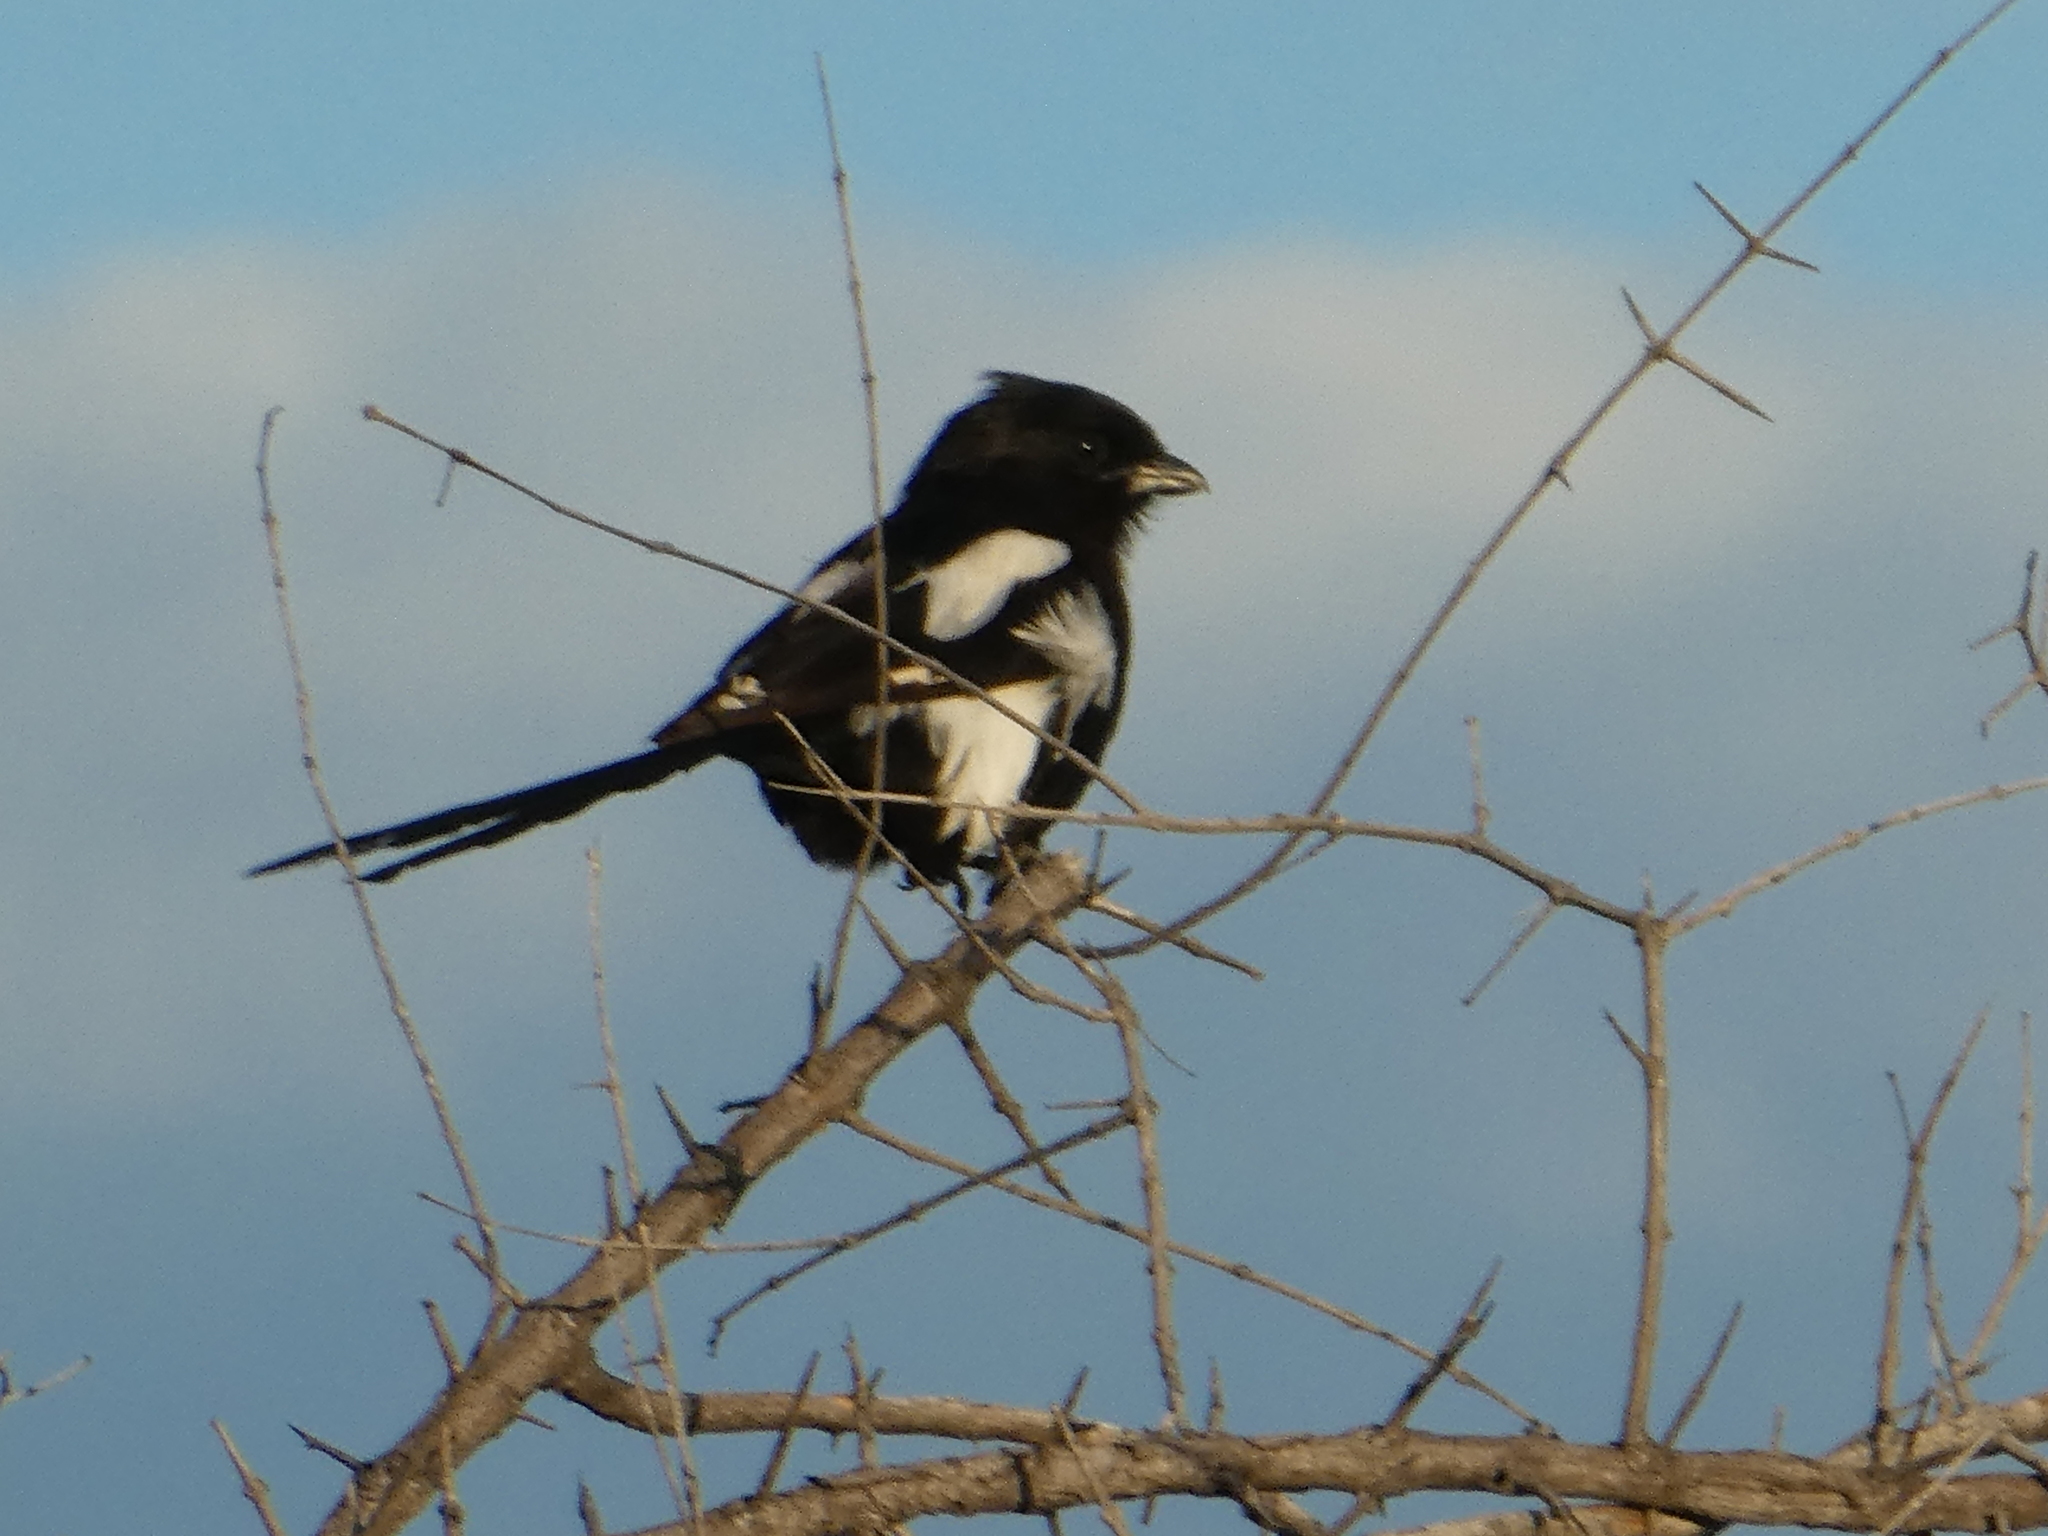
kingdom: Animalia
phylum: Chordata
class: Aves
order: Passeriformes
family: Laniidae
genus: Urolestes
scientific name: Urolestes melanoleucus
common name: Magpie shrike
